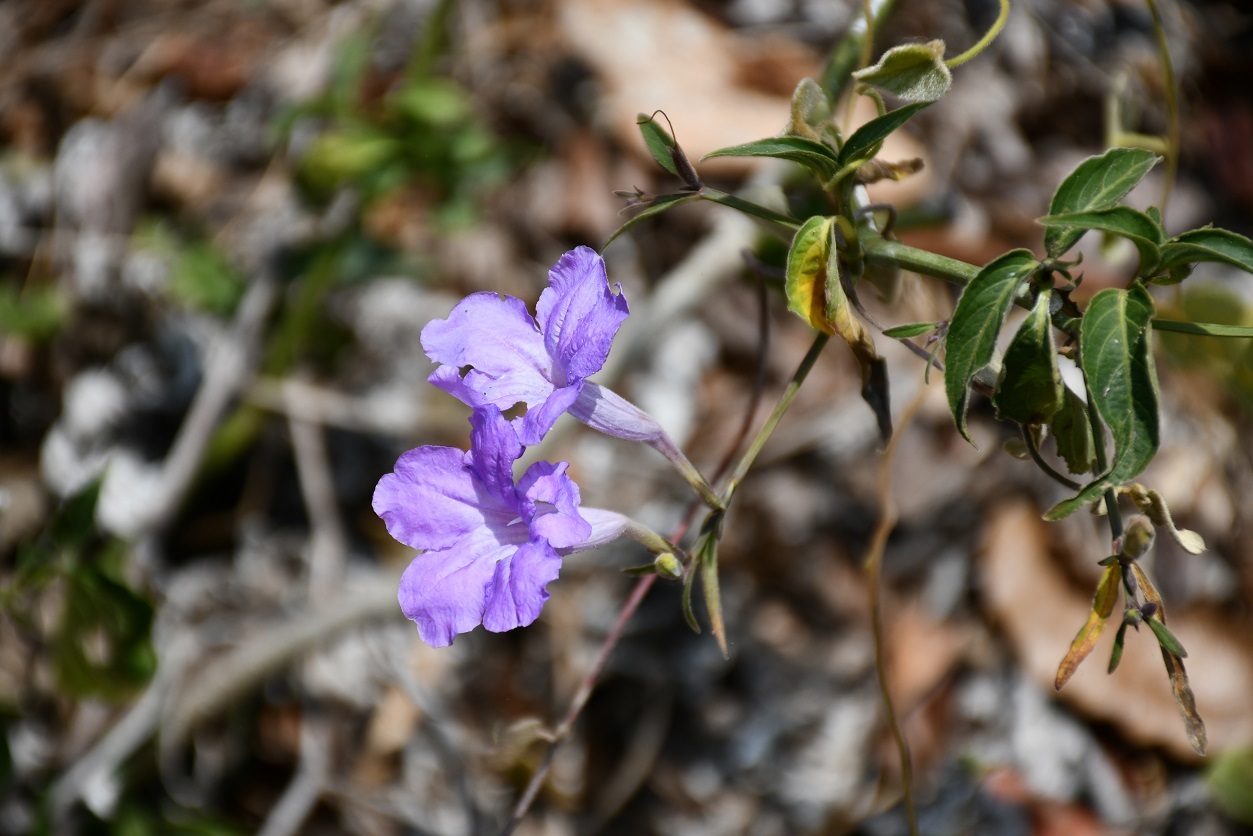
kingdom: Plantae
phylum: Tracheophyta
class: Magnoliopsida
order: Lamiales
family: Acanthaceae
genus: Ruellia
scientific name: Ruellia breedlovei
